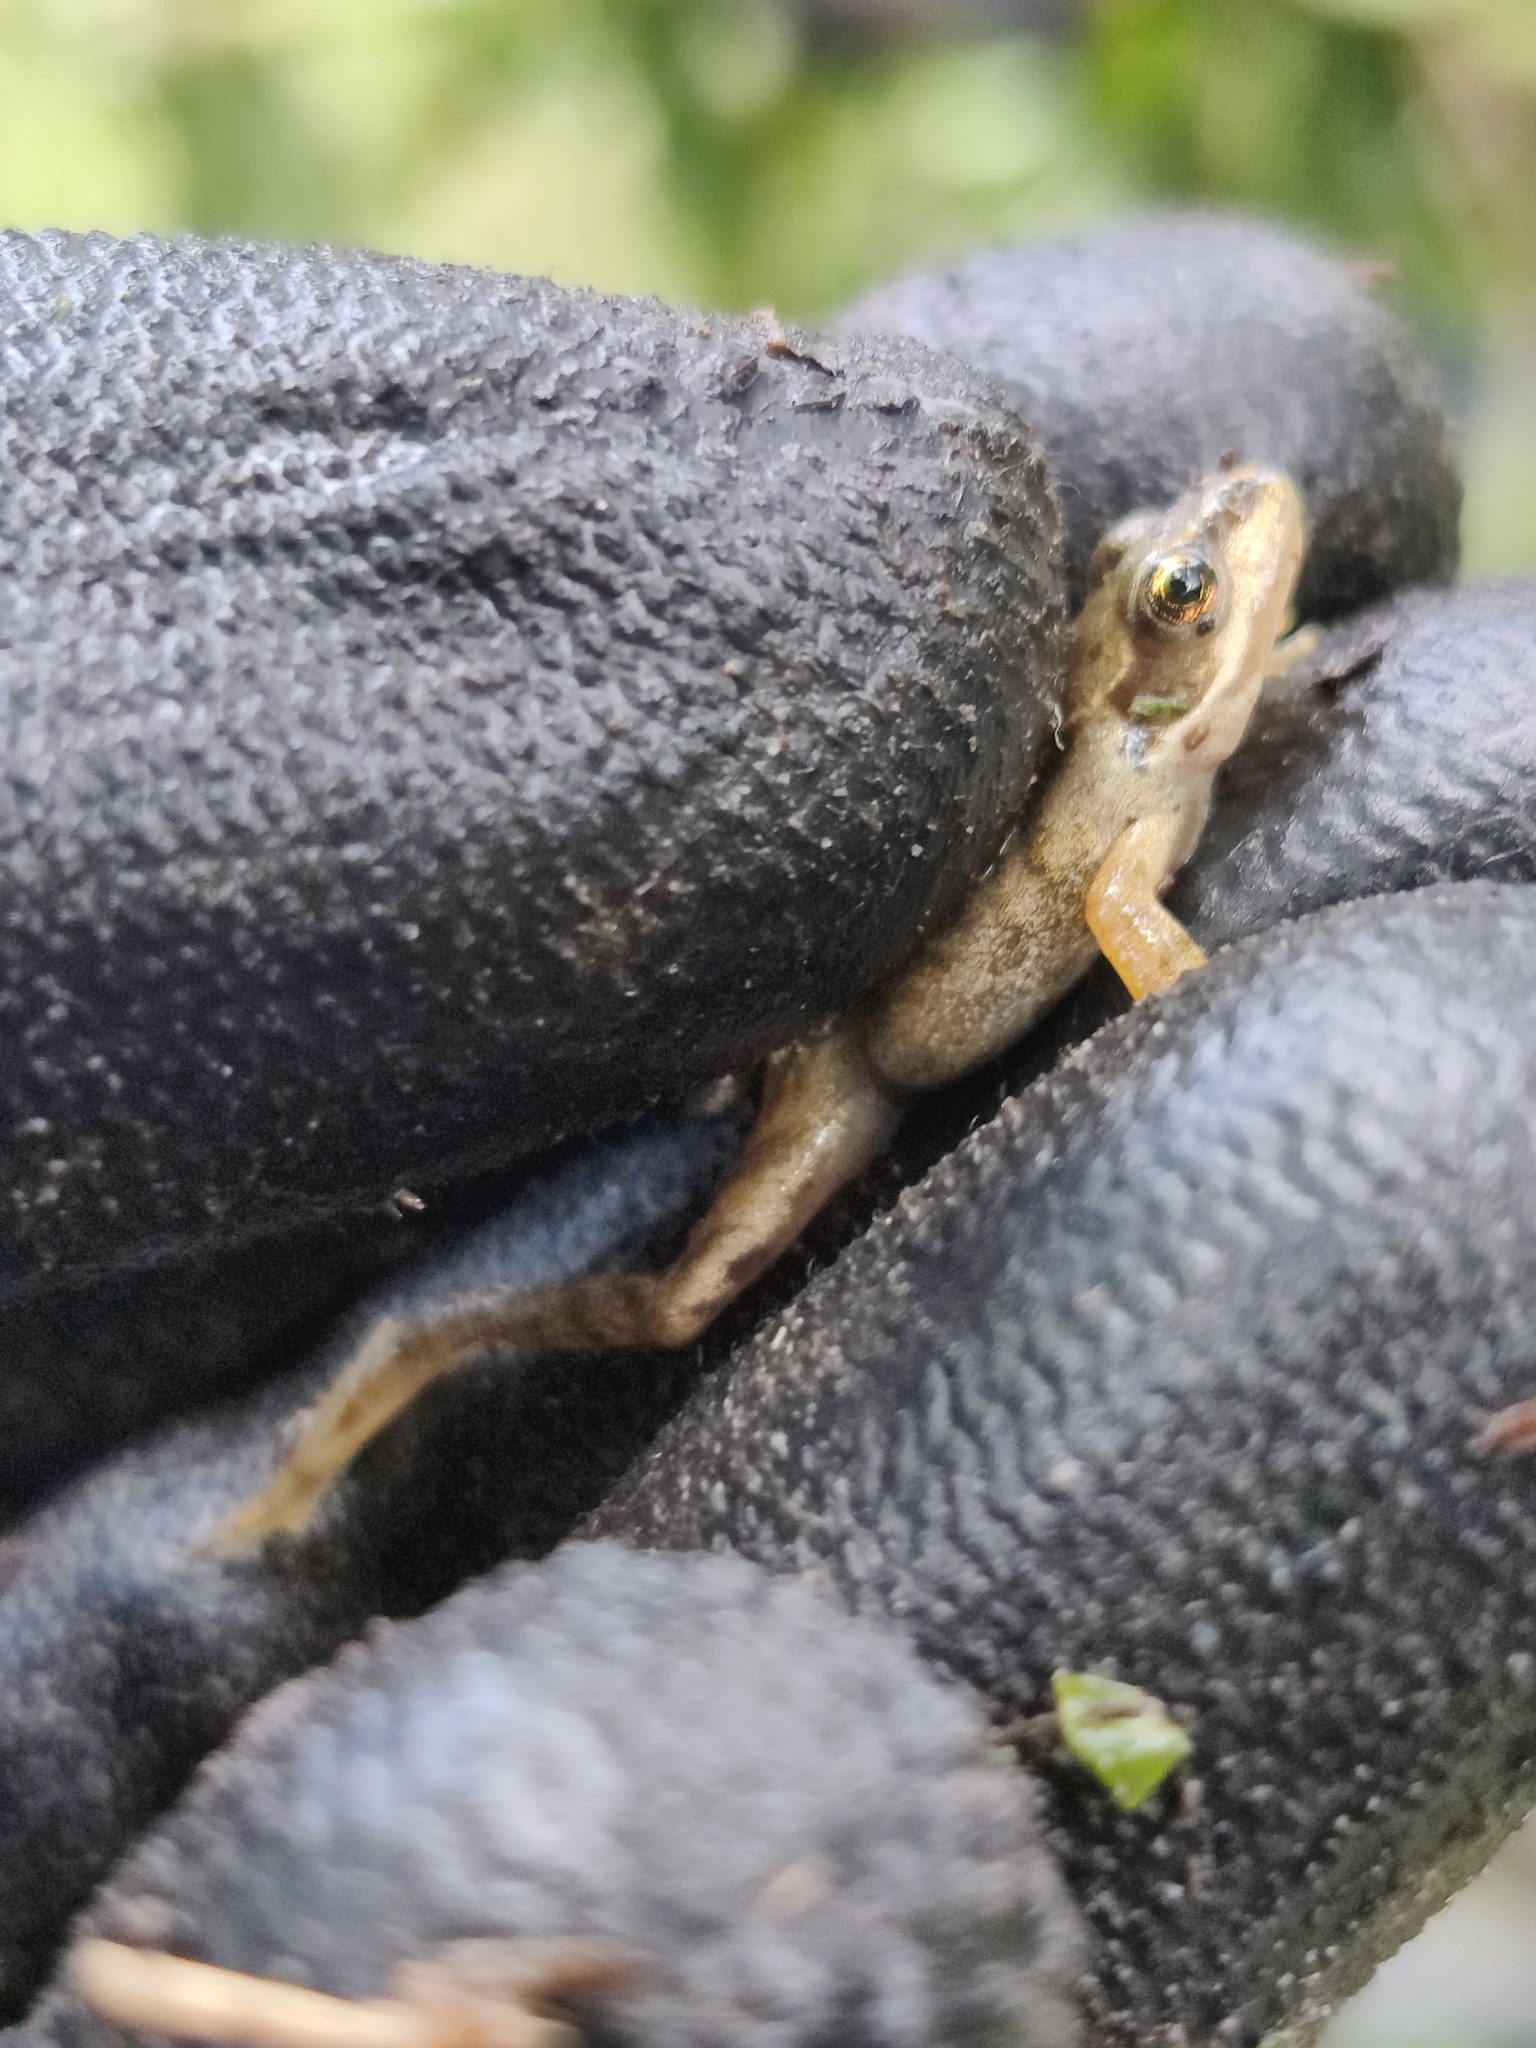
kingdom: Animalia
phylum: Chordata
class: Amphibia
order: Anura
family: Ranidae
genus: Rana
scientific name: Rana temporaria
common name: Common frog
